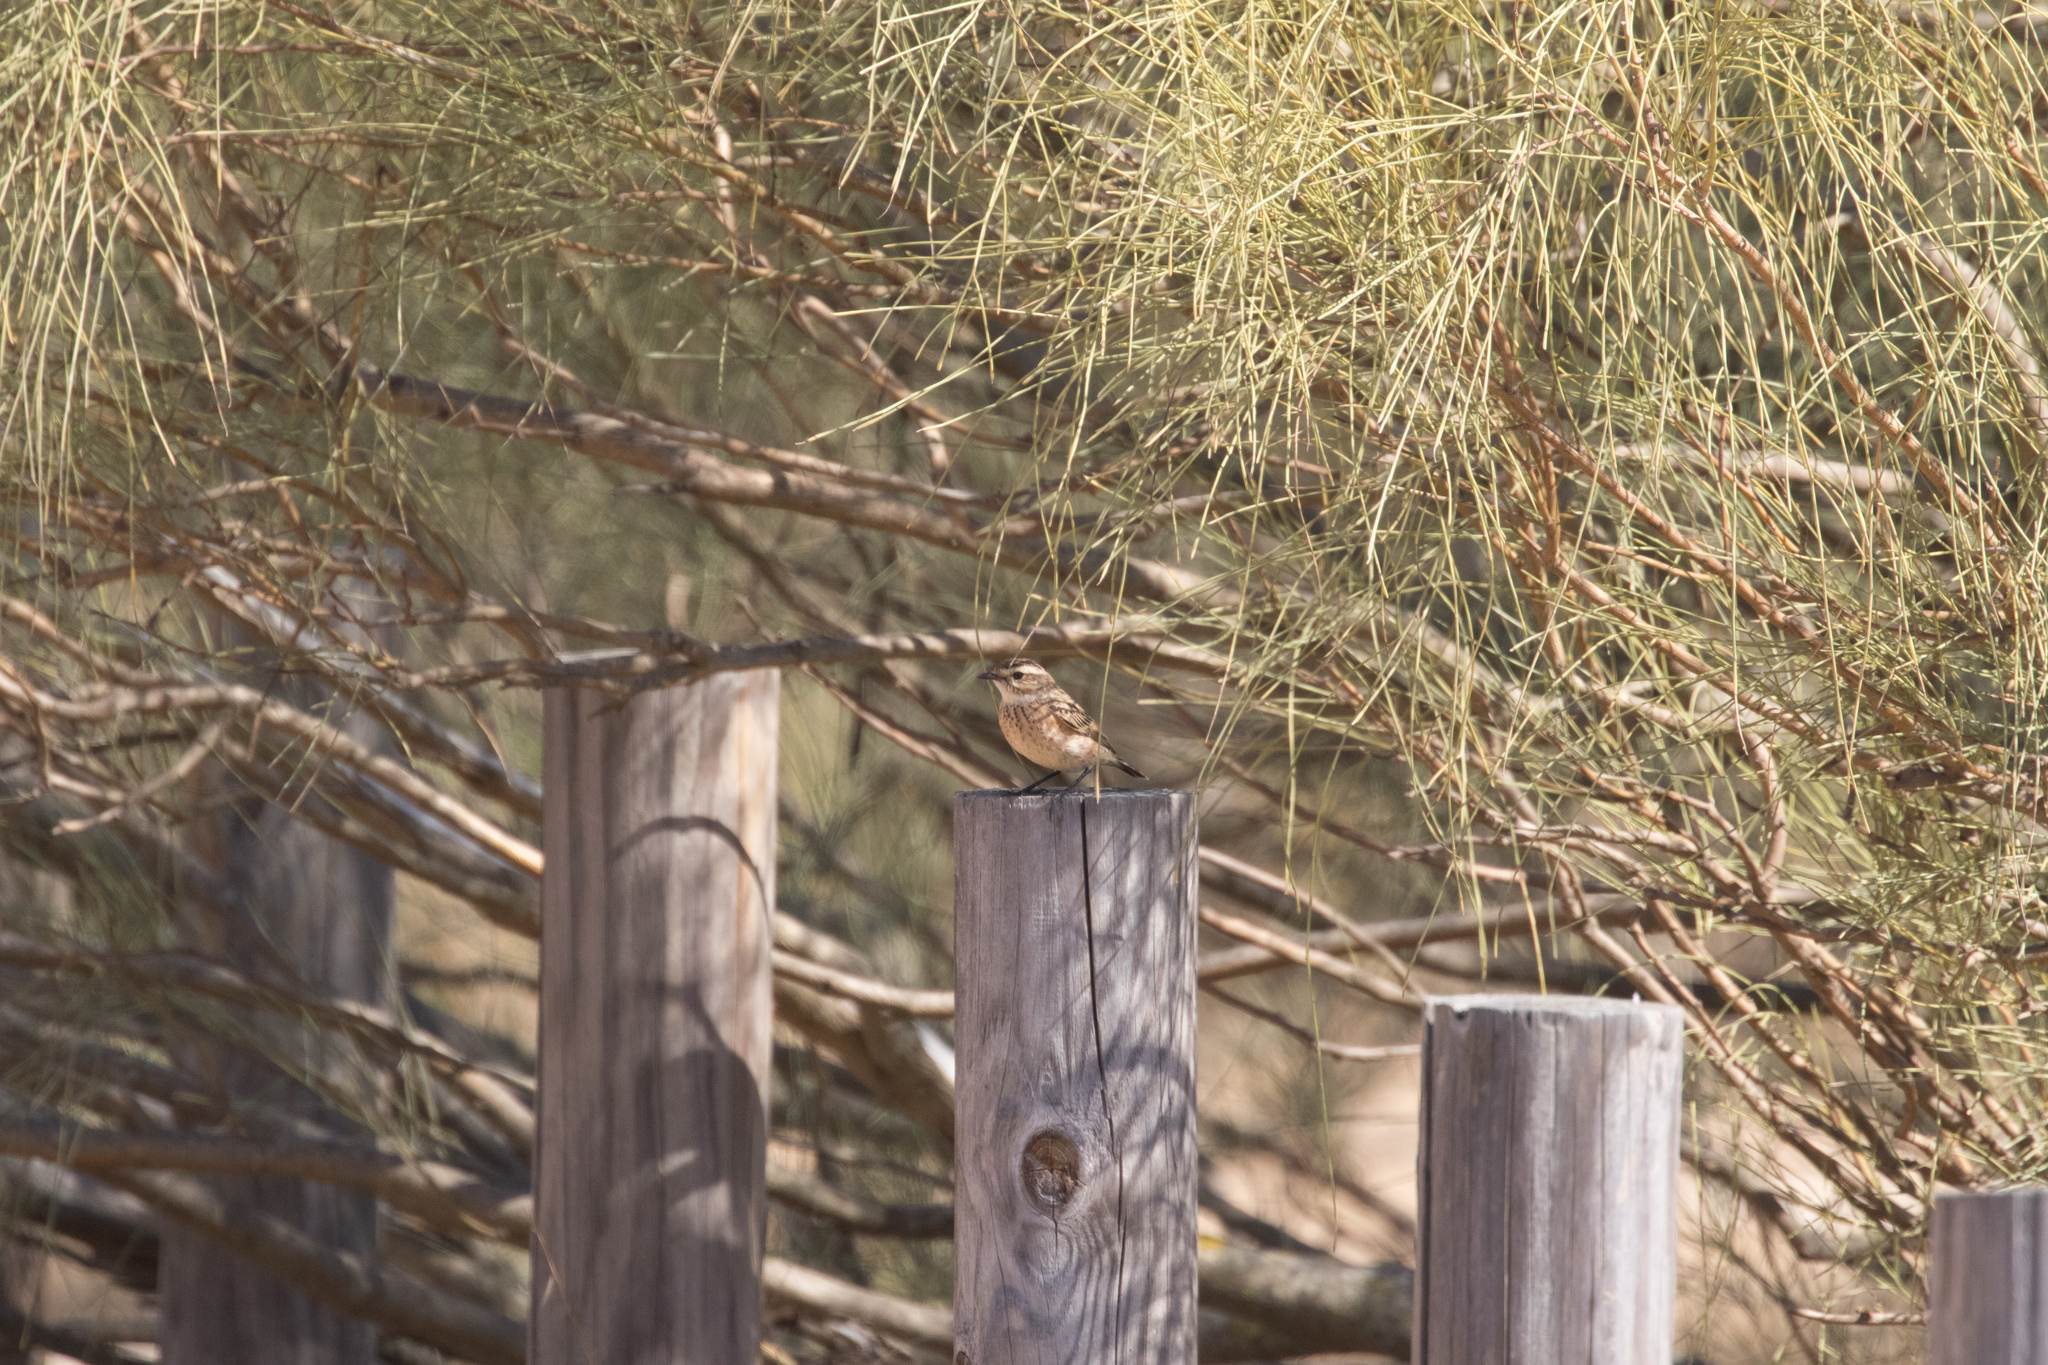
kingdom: Animalia
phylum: Chordata
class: Aves
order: Passeriformes
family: Muscicapidae
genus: Saxicola
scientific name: Saxicola rubetra
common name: Whinchat
